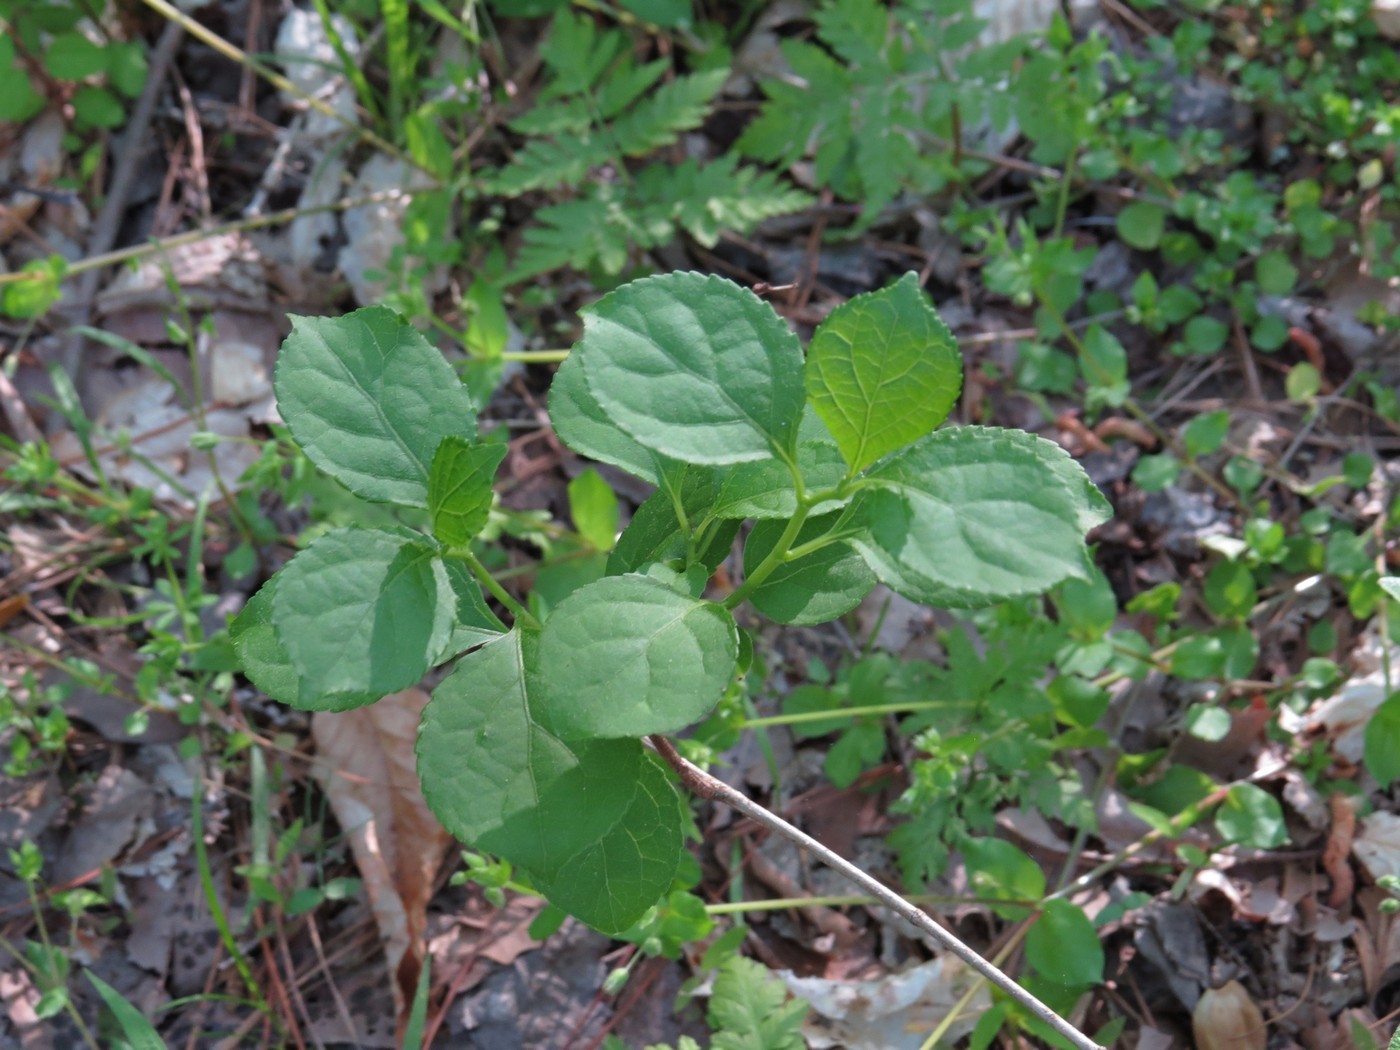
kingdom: Plantae
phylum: Tracheophyta
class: Magnoliopsida
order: Celastrales
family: Celastraceae
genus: Celastrus
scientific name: Celastrus orbiculatus
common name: Oriental bittersweet
